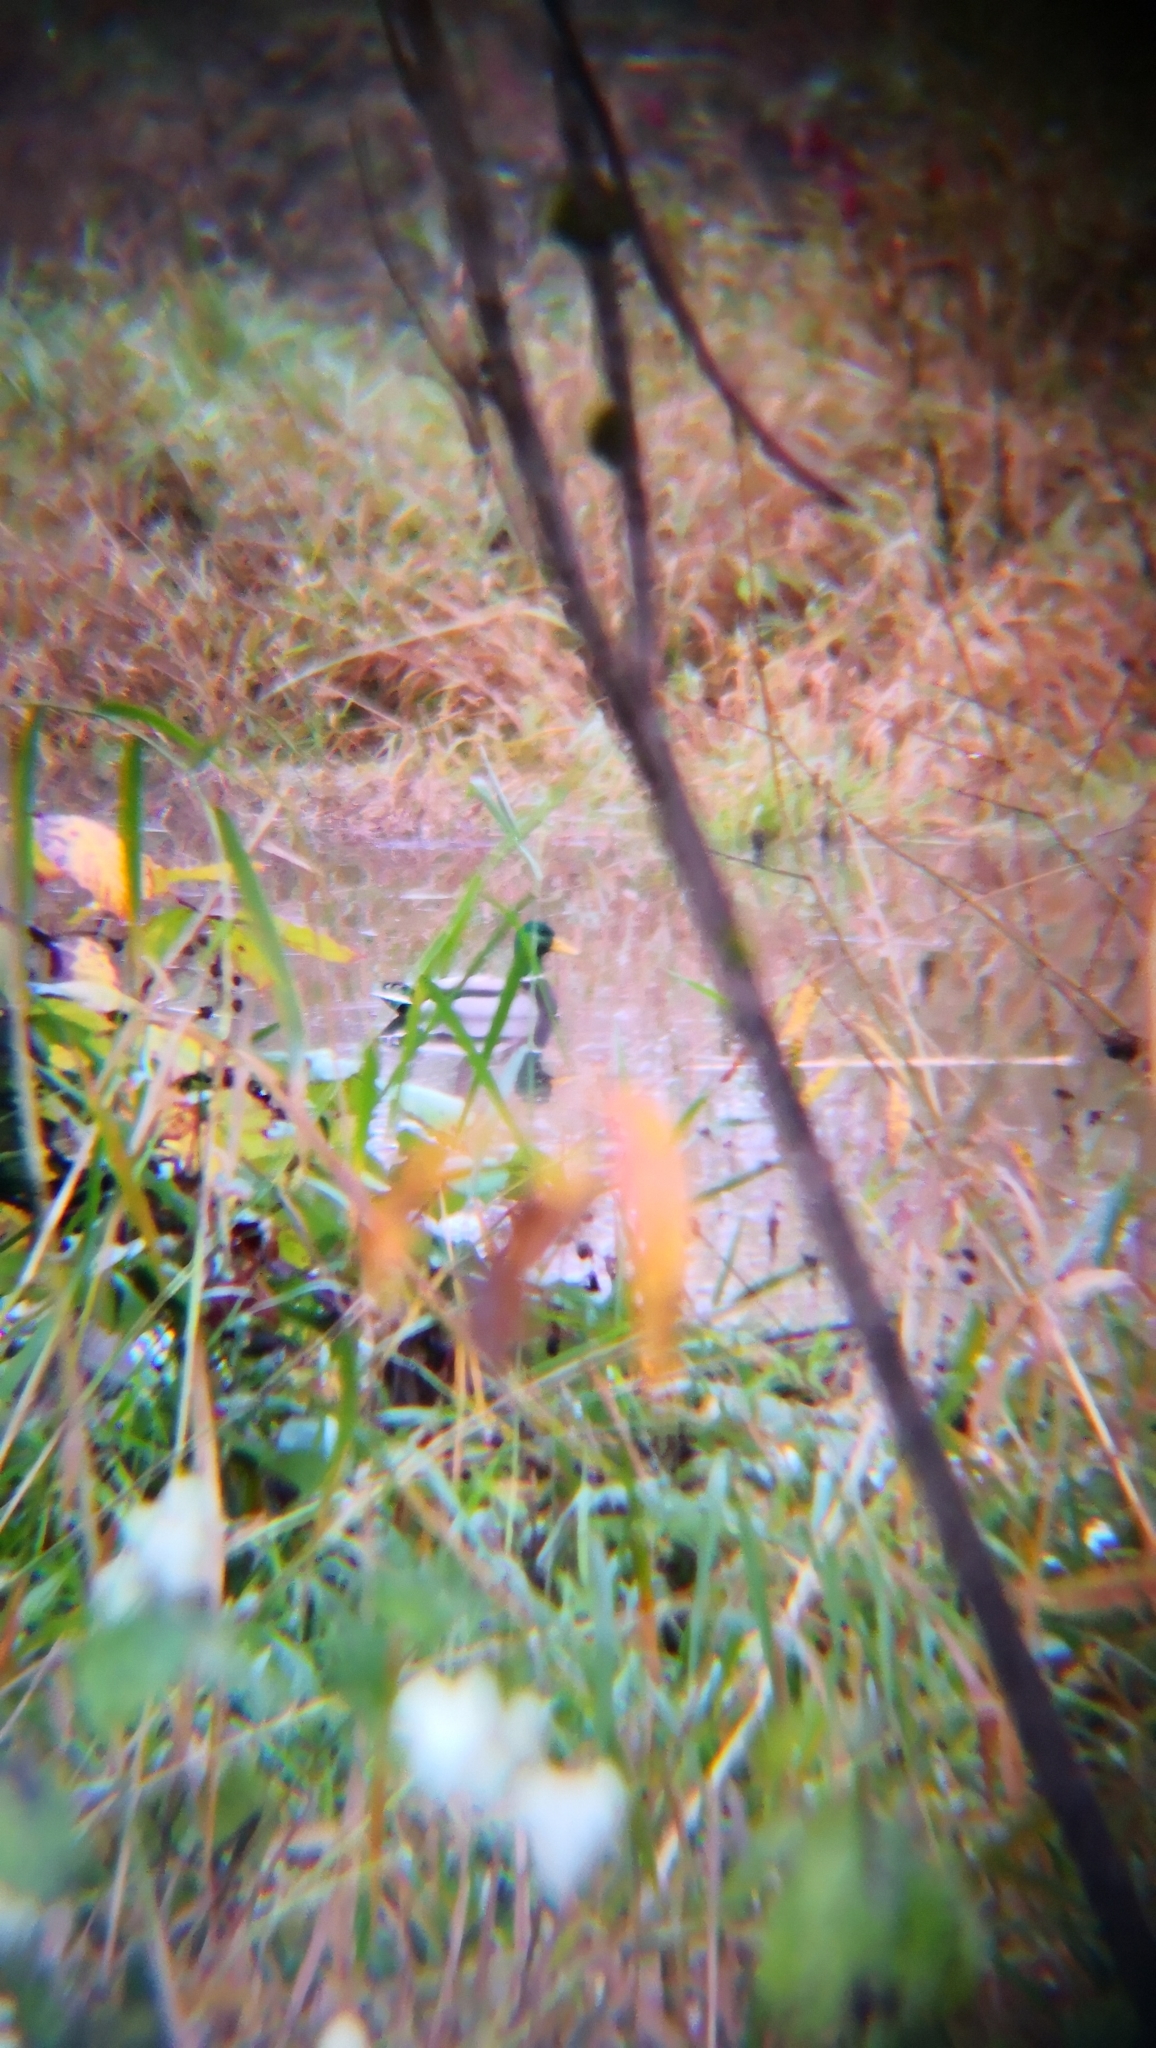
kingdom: Animalia
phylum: Chordata
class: Aves
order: Anseriformes
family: Anatidae
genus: Anas
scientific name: Anas platyrhynchos
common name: Mallard
